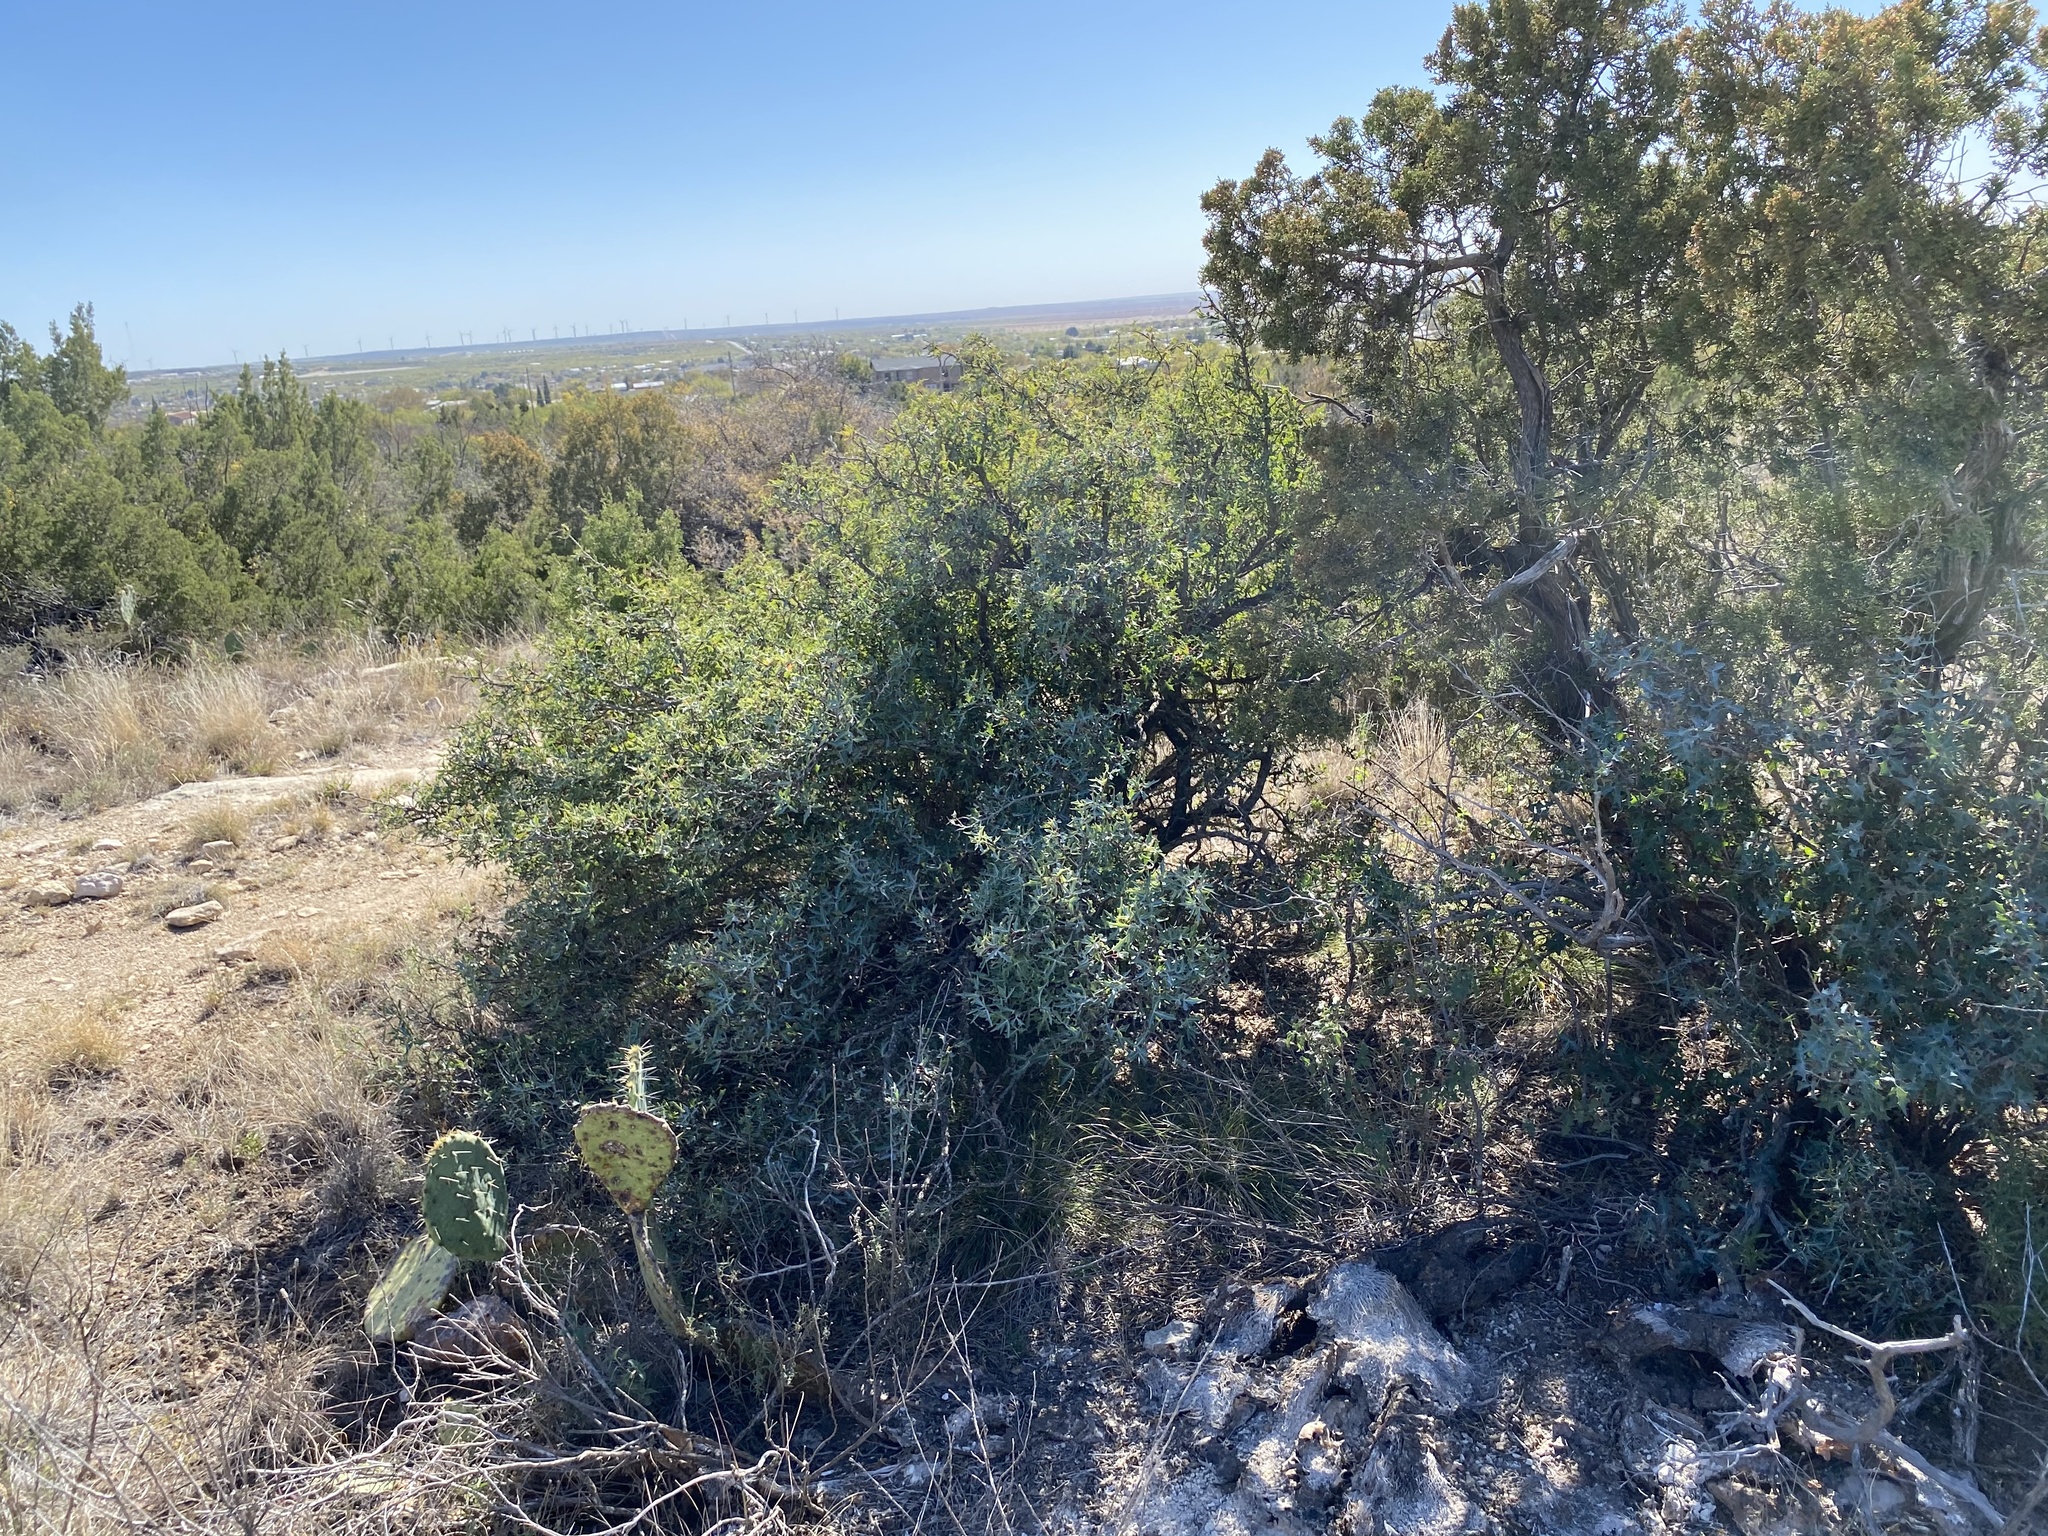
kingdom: Plantae
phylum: Tracheophyta
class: Magnoliopsida
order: Ranunculales
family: Berberidaceae
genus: Alloberberis
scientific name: Alloberberis trifoliolata
